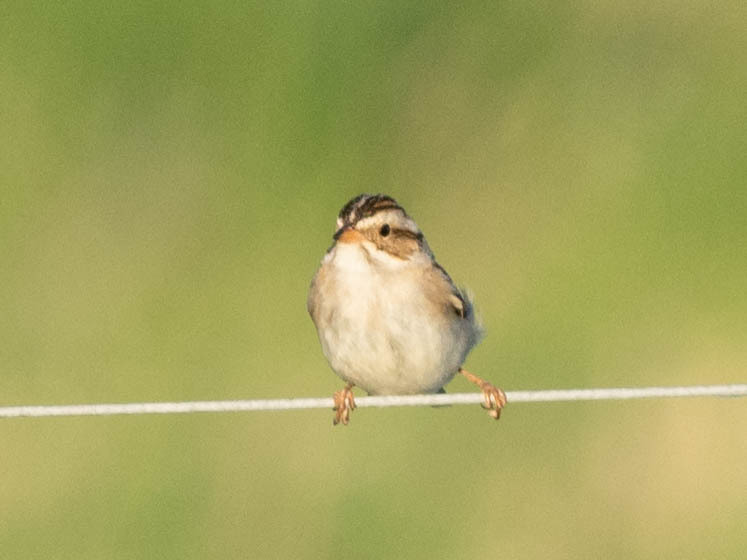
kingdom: Animalia
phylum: Chordata
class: Aves
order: Passeriformes
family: Passerellidae
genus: Spizella
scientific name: Spizella pallida
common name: Clay-colored sparrow
